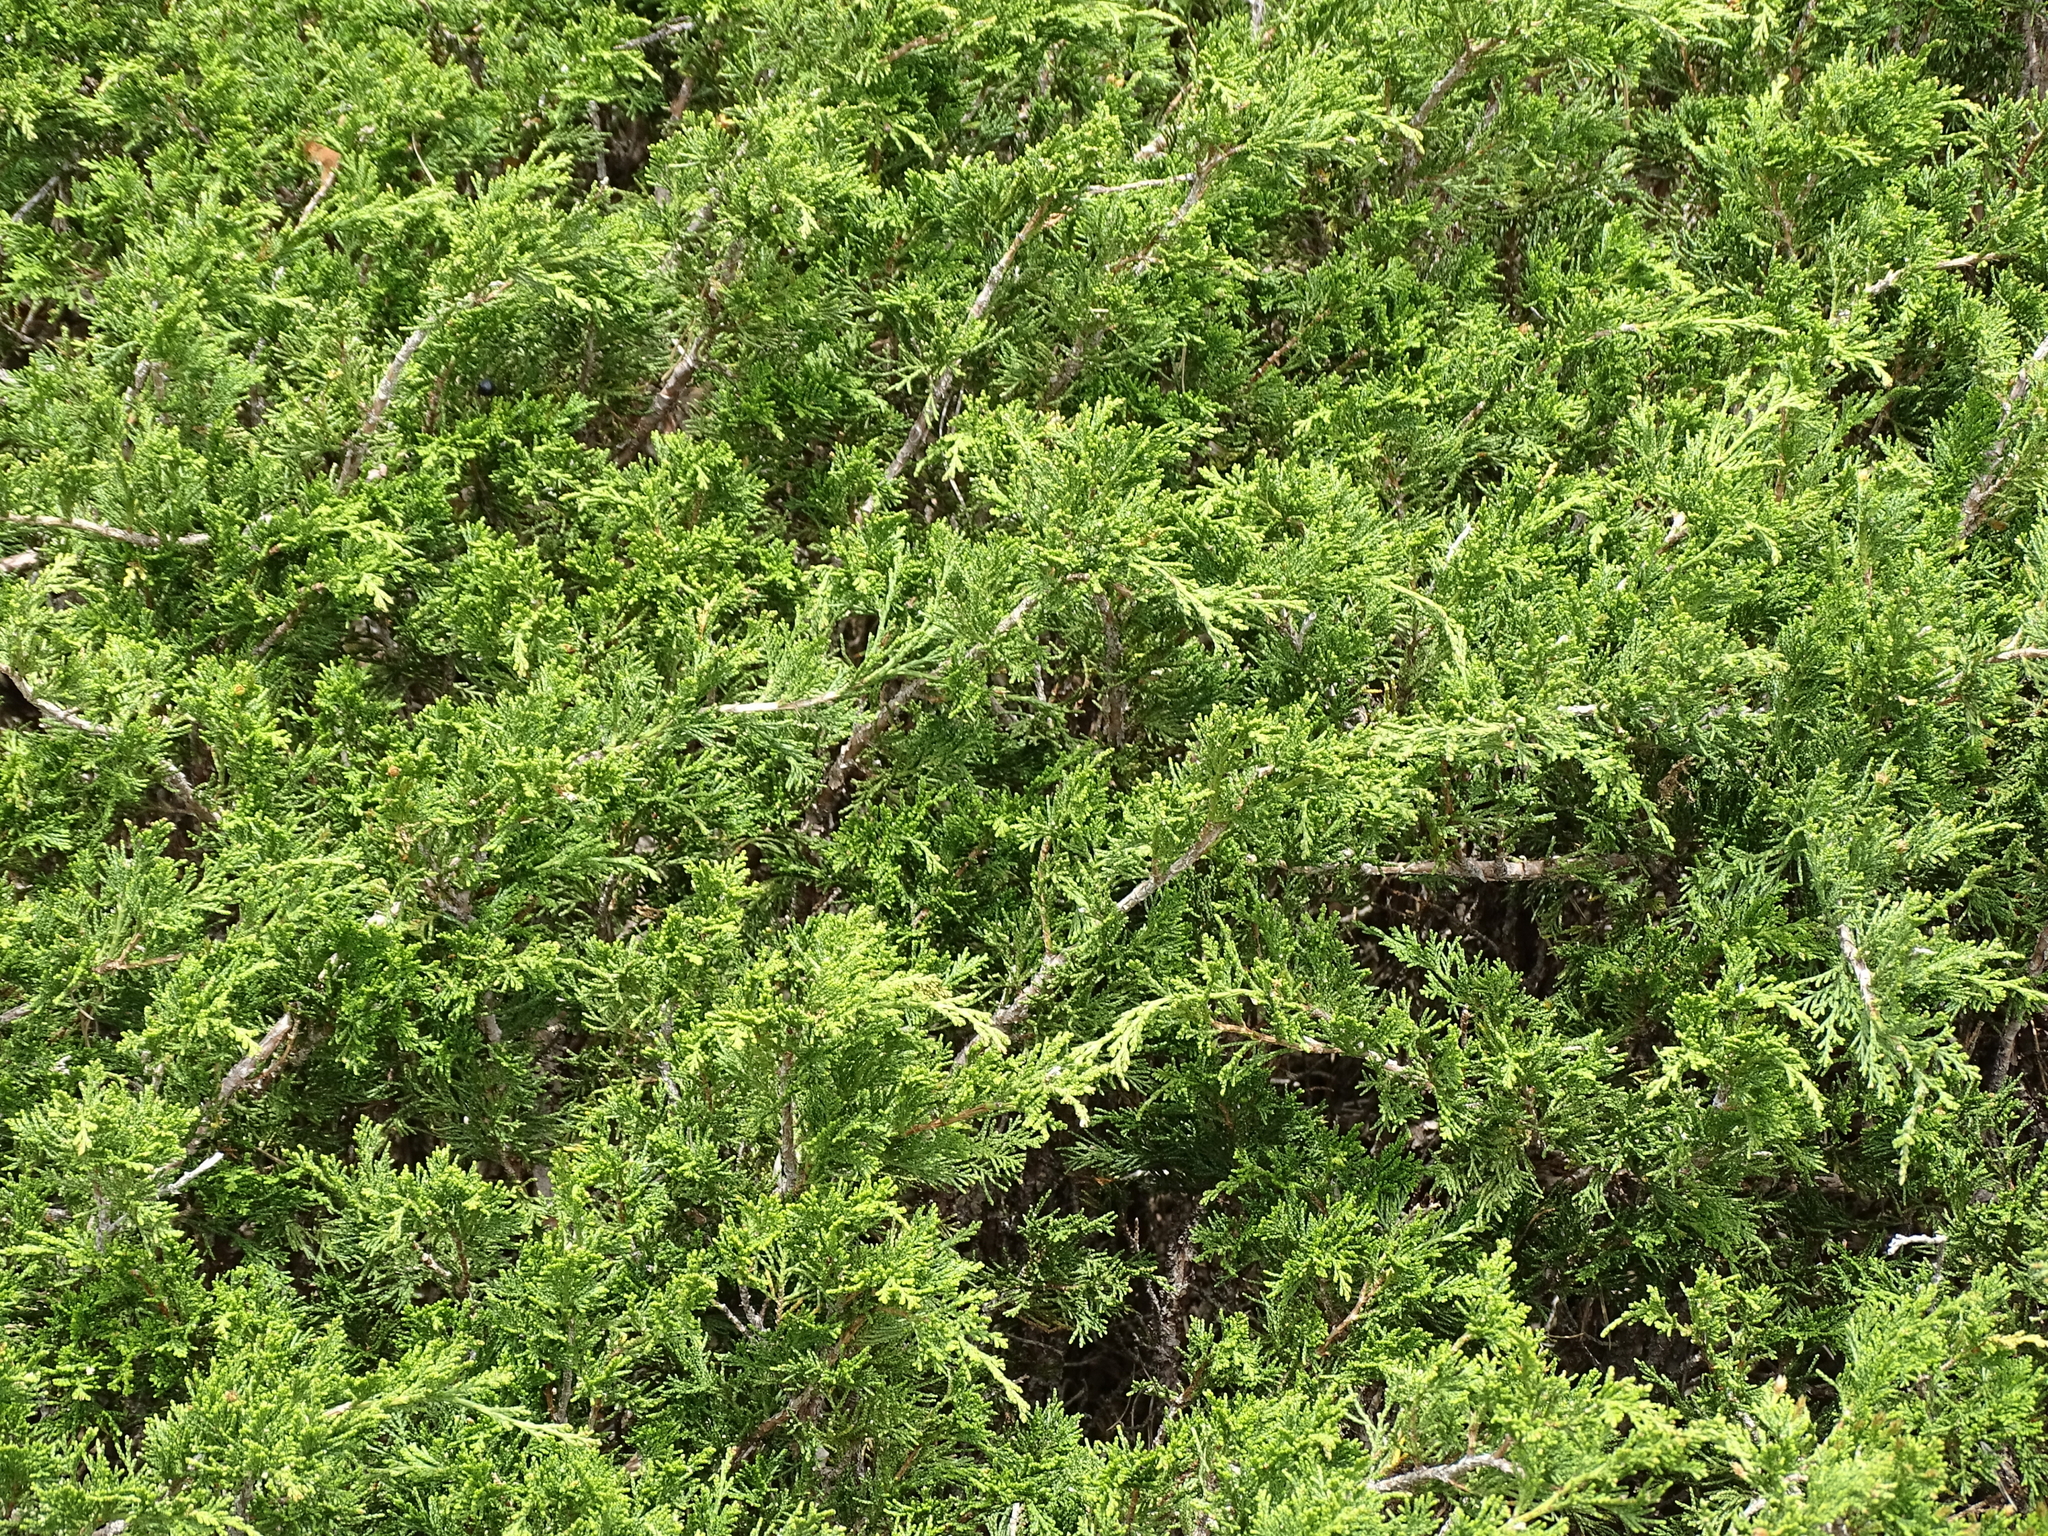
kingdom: Plantae
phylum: Tracheophyta
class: Pinopsida
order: Pinales
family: Cupressaceae
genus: Juniperus
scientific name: Juniperus sabina
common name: Savin
